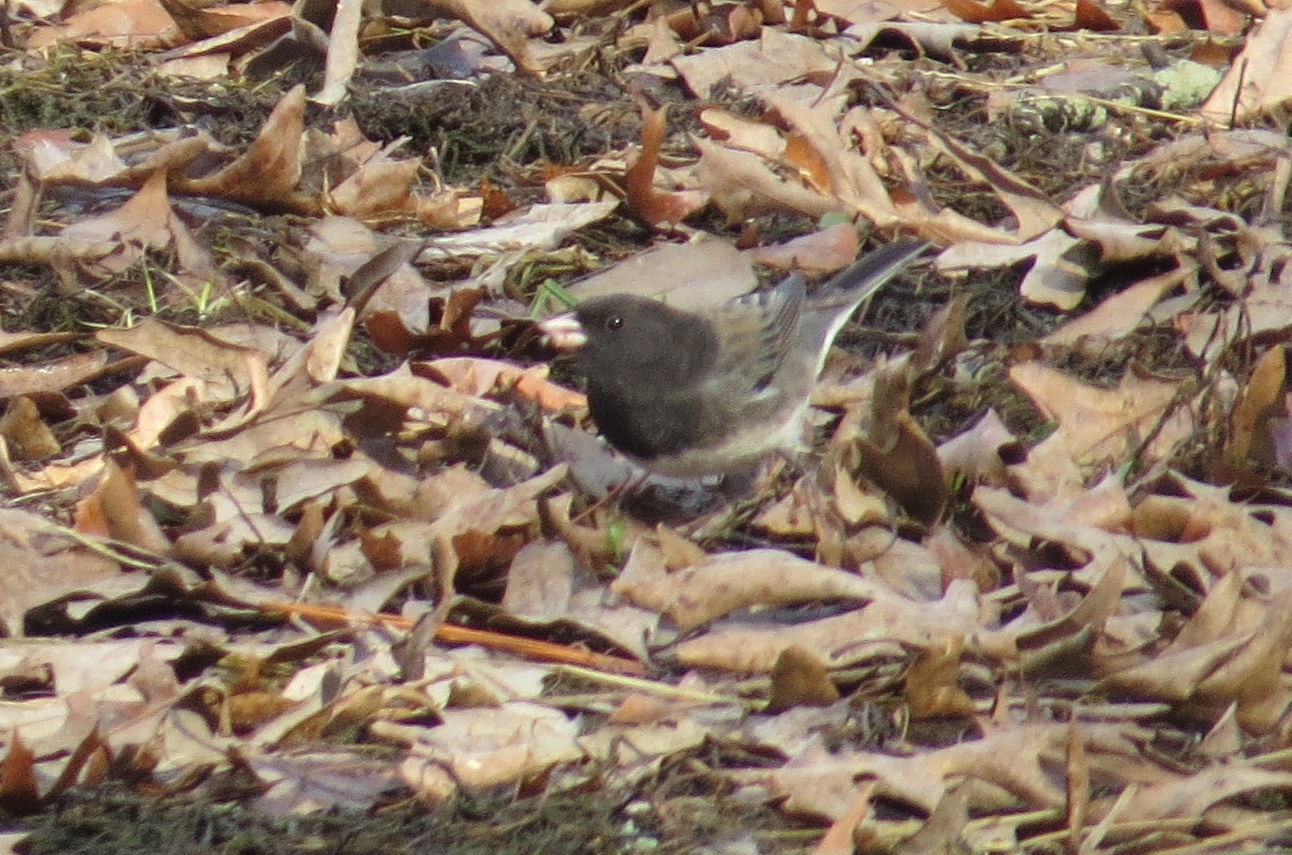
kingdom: Animalia
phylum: Chordata
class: Aves
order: Passeriformes
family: Passerellidae
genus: Junco
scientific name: Junco hyemalis
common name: Dark-eyed junco
